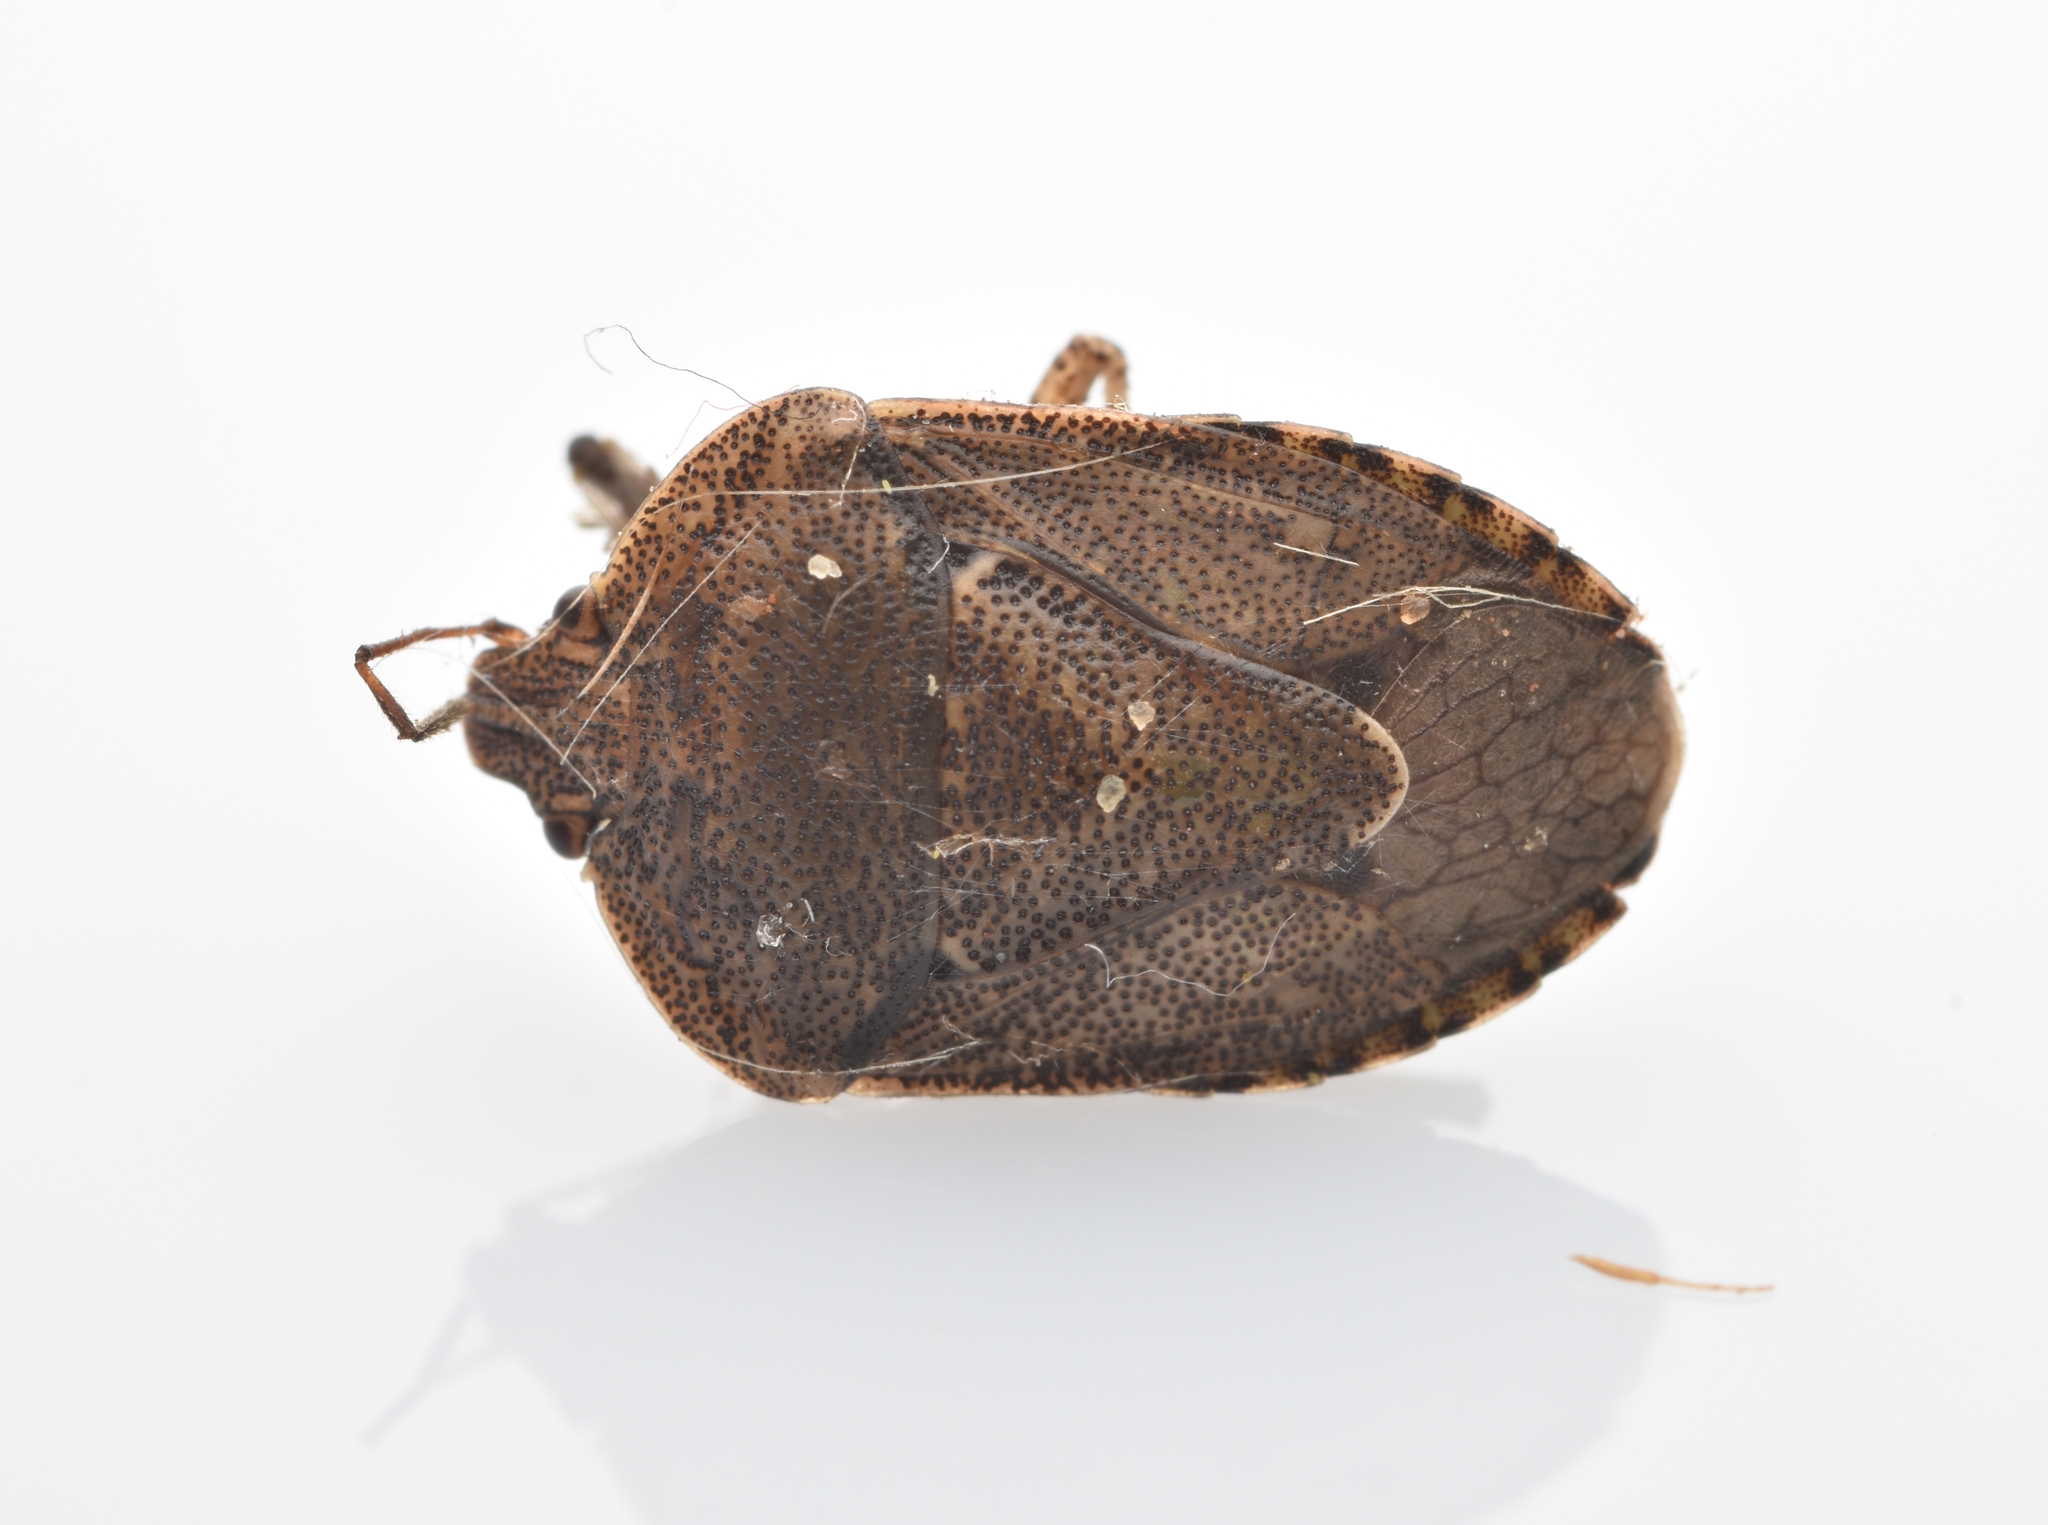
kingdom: Animalia
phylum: Arthropoda
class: Insecta
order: Hemiptera
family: Pentatomidae
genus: Hymenarcys
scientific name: Hymenarcys nervosa
